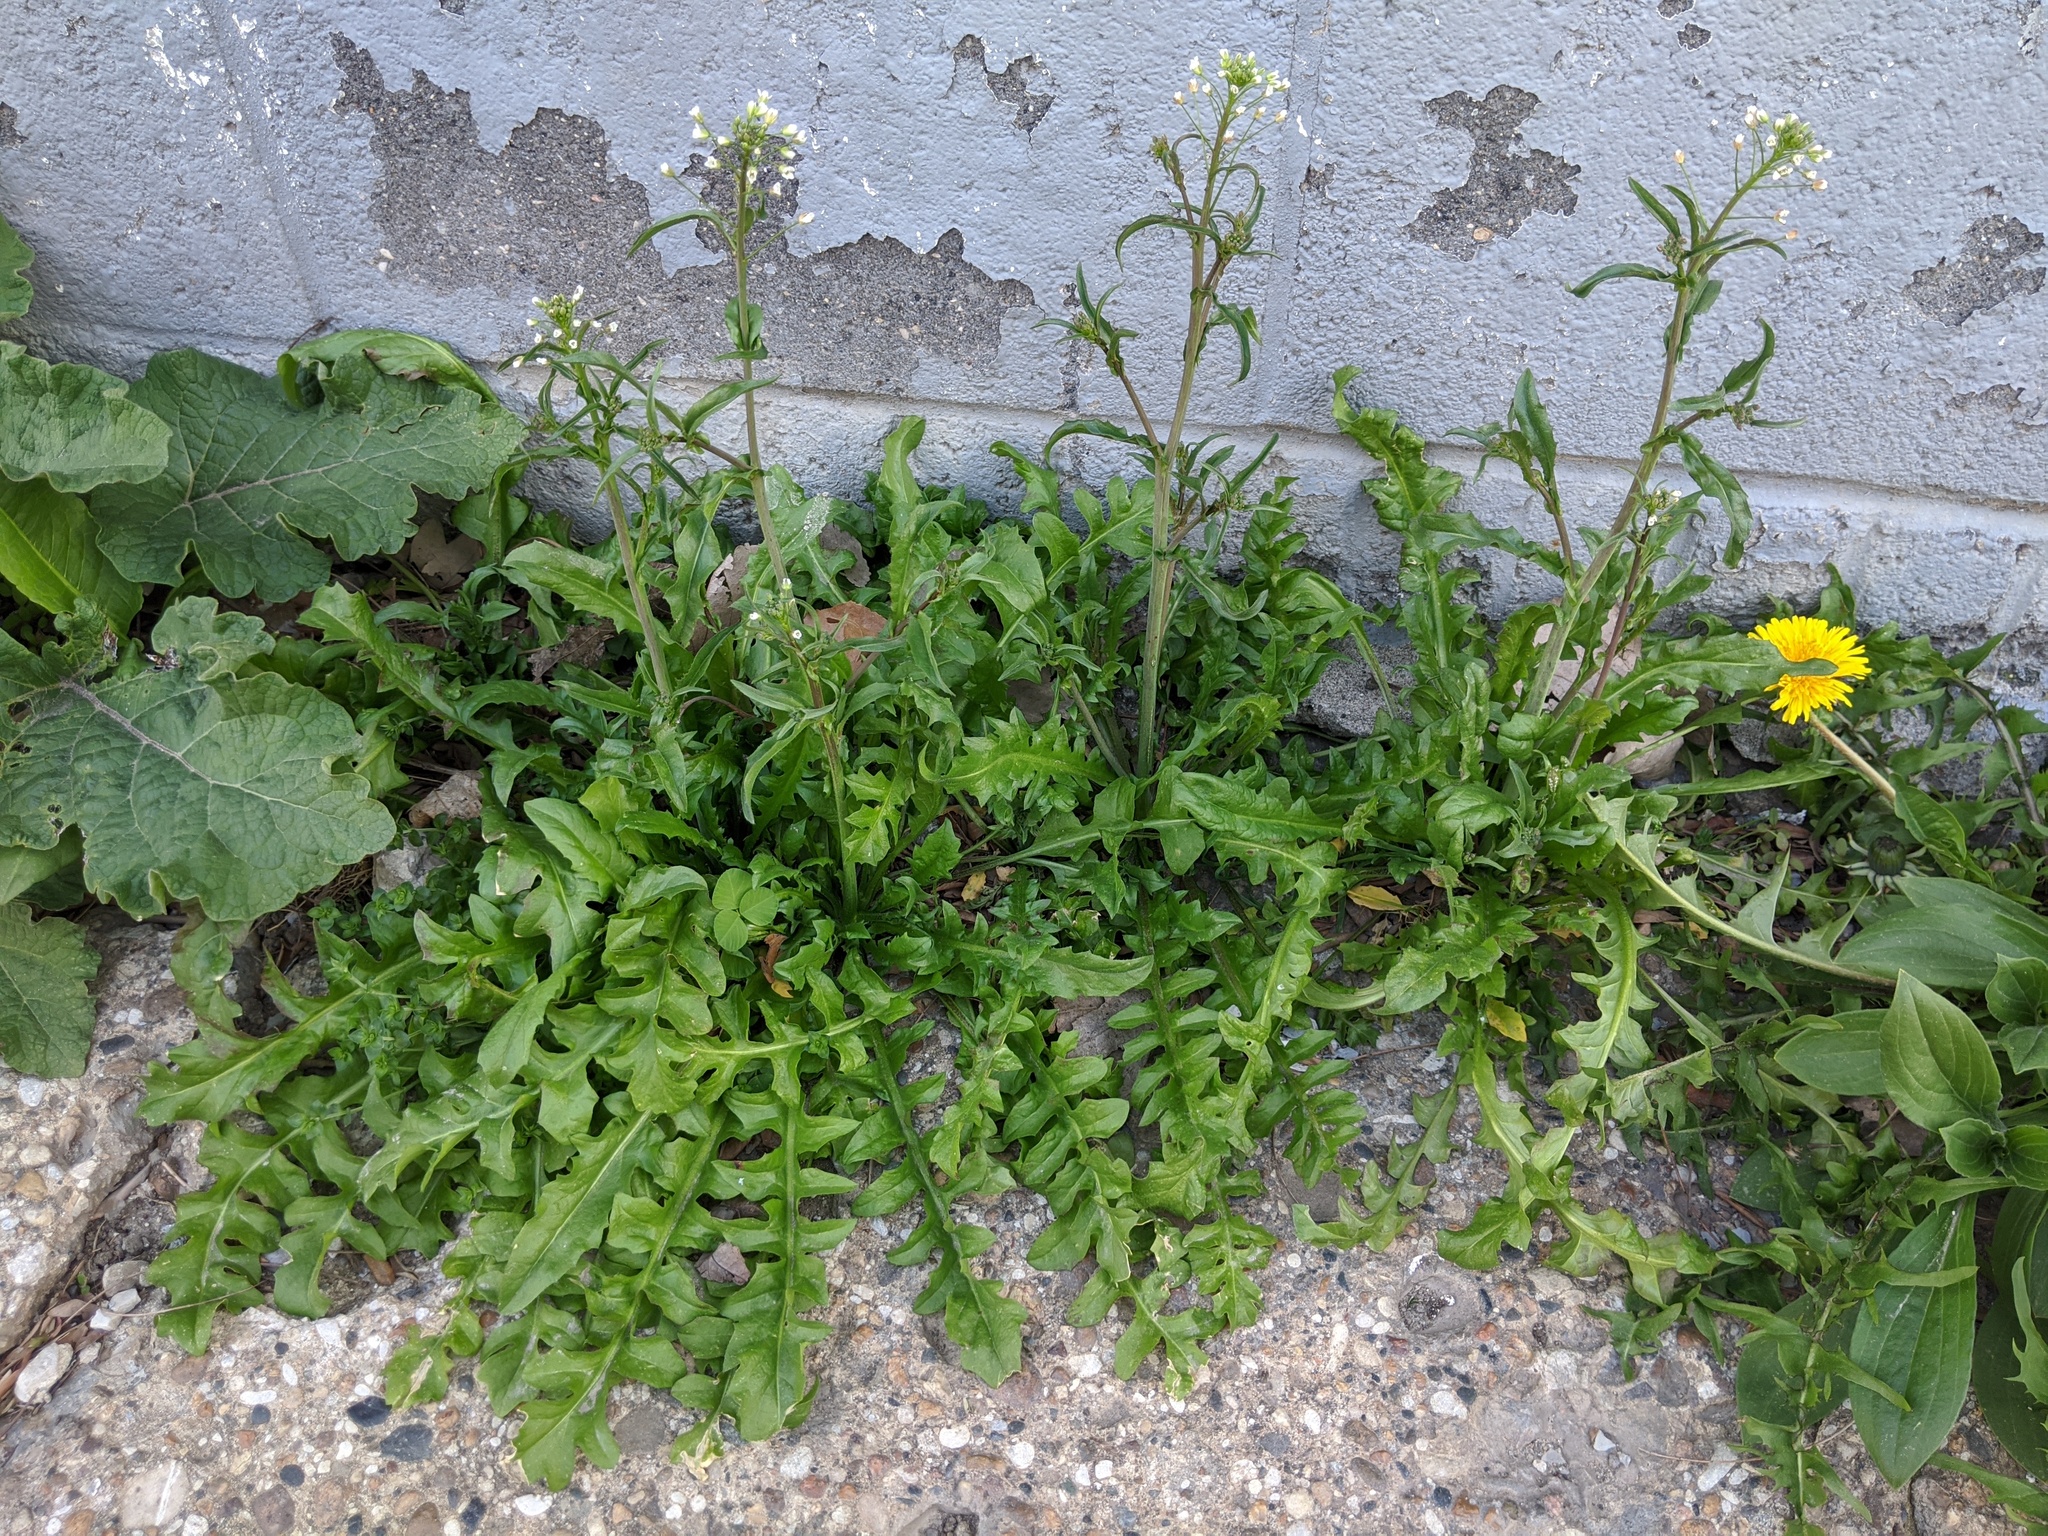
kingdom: Plantae
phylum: Tracheophyta
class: Magnoliopsida
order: Brassicales
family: Brassicaceae
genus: Capsella
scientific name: Capsella bursa-pastoris
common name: Shepherd's purse
